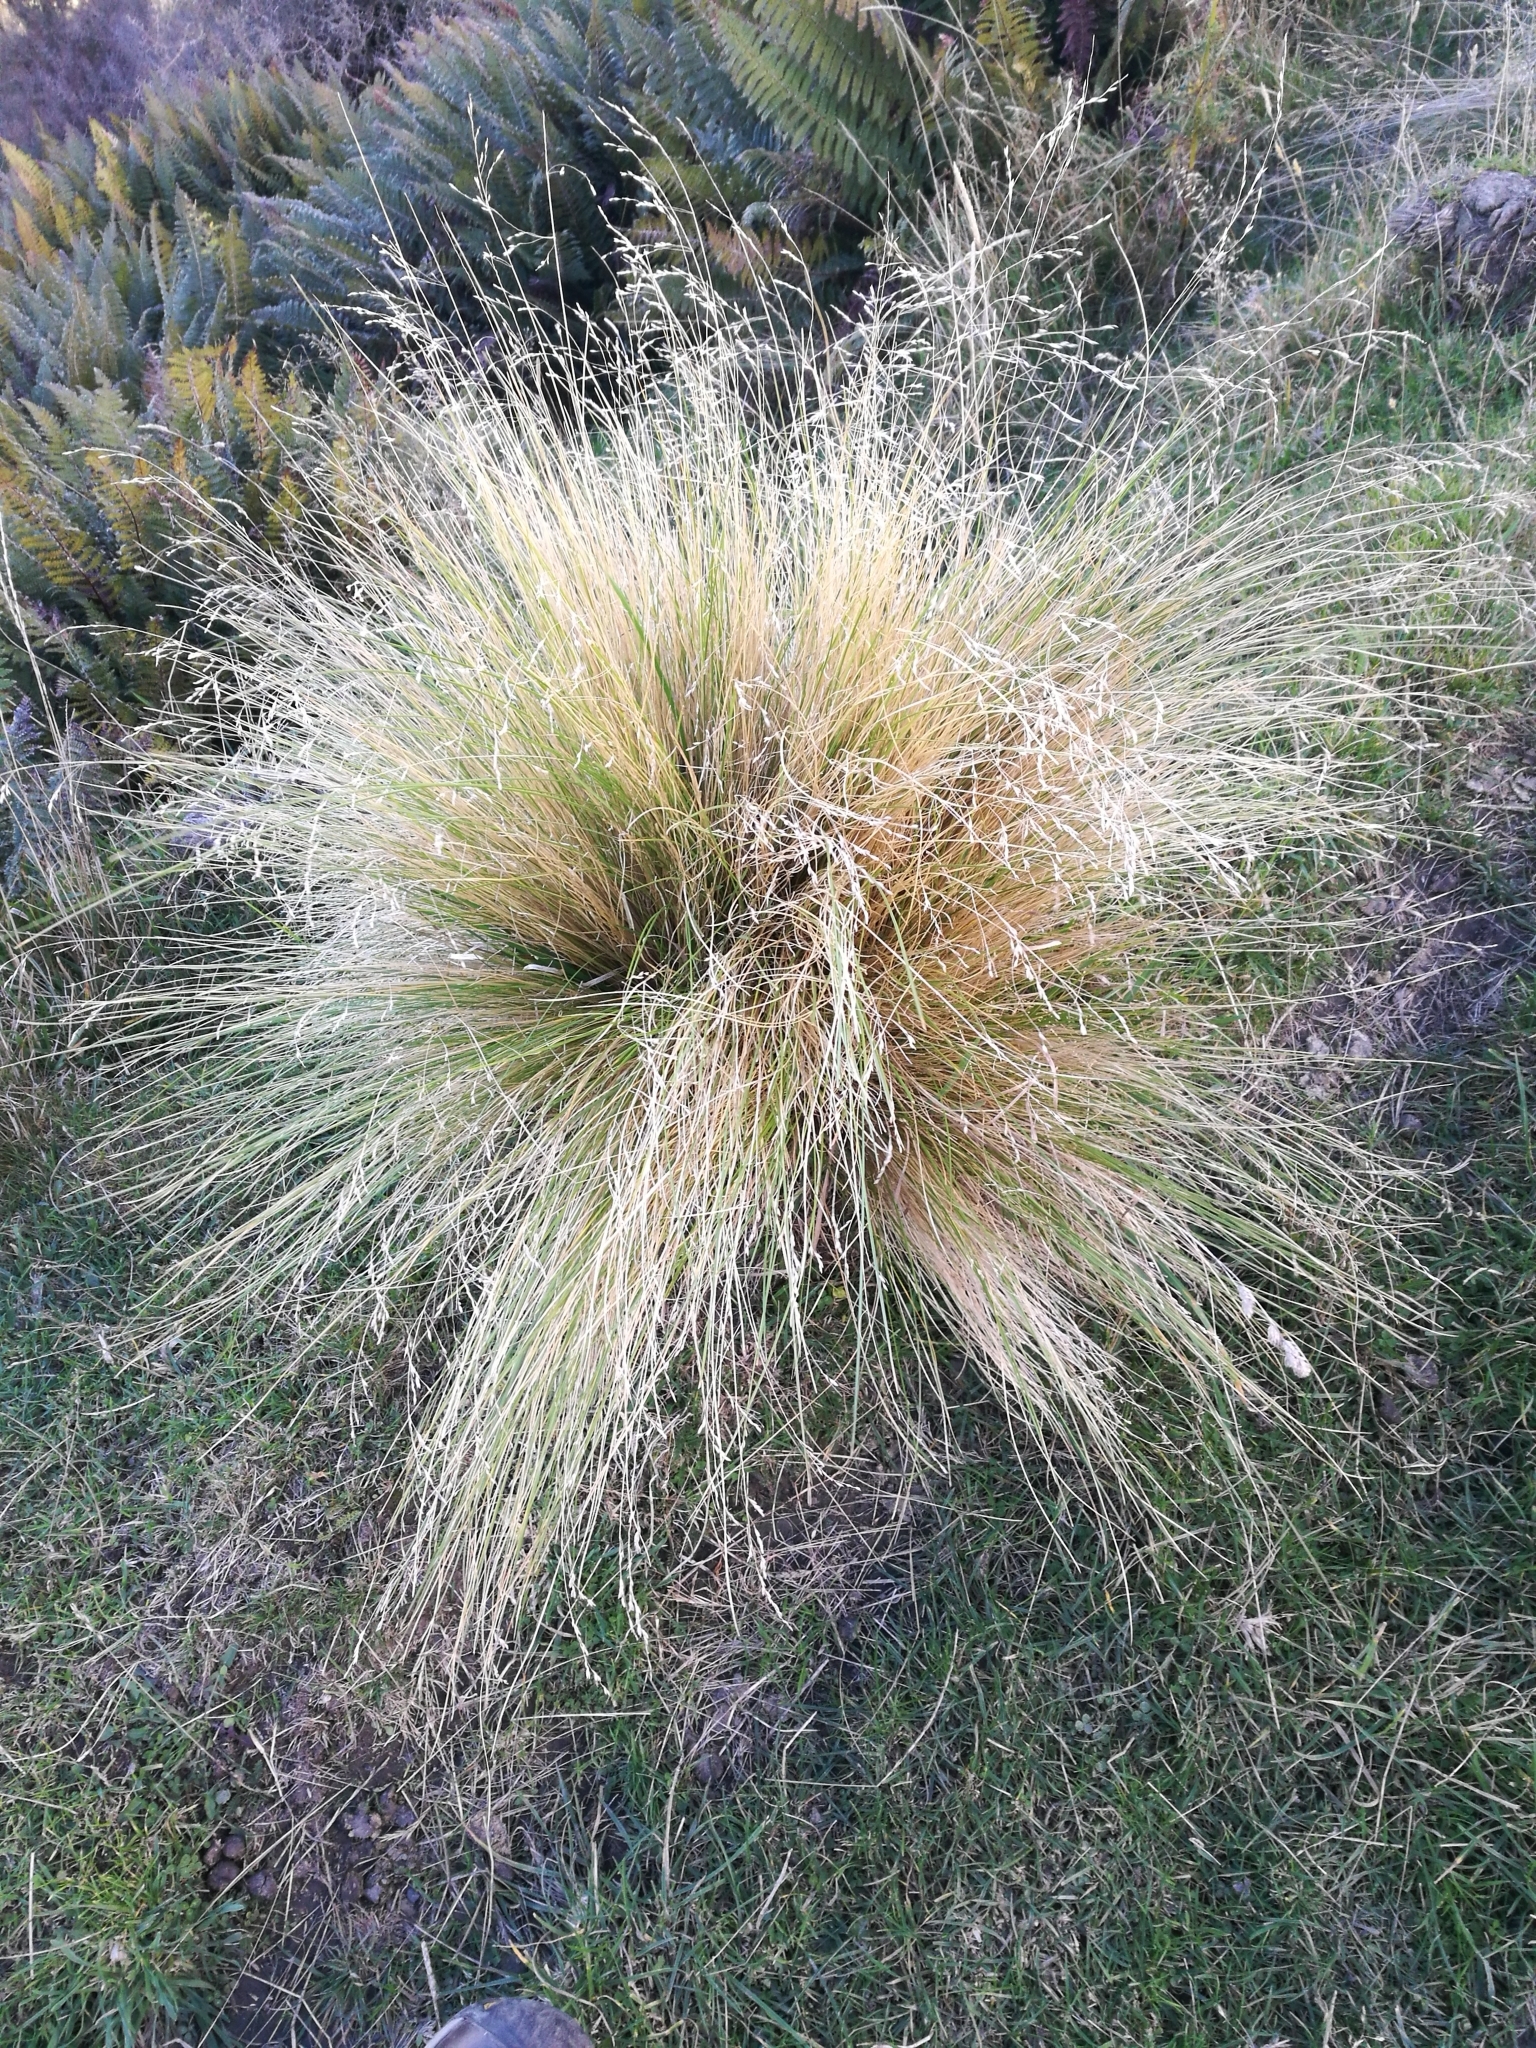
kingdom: Plantae
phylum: Tracheophyta
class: Liliopsida
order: Poales
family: Poaceae
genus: Poa
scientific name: Poa cita
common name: Silver tussock
